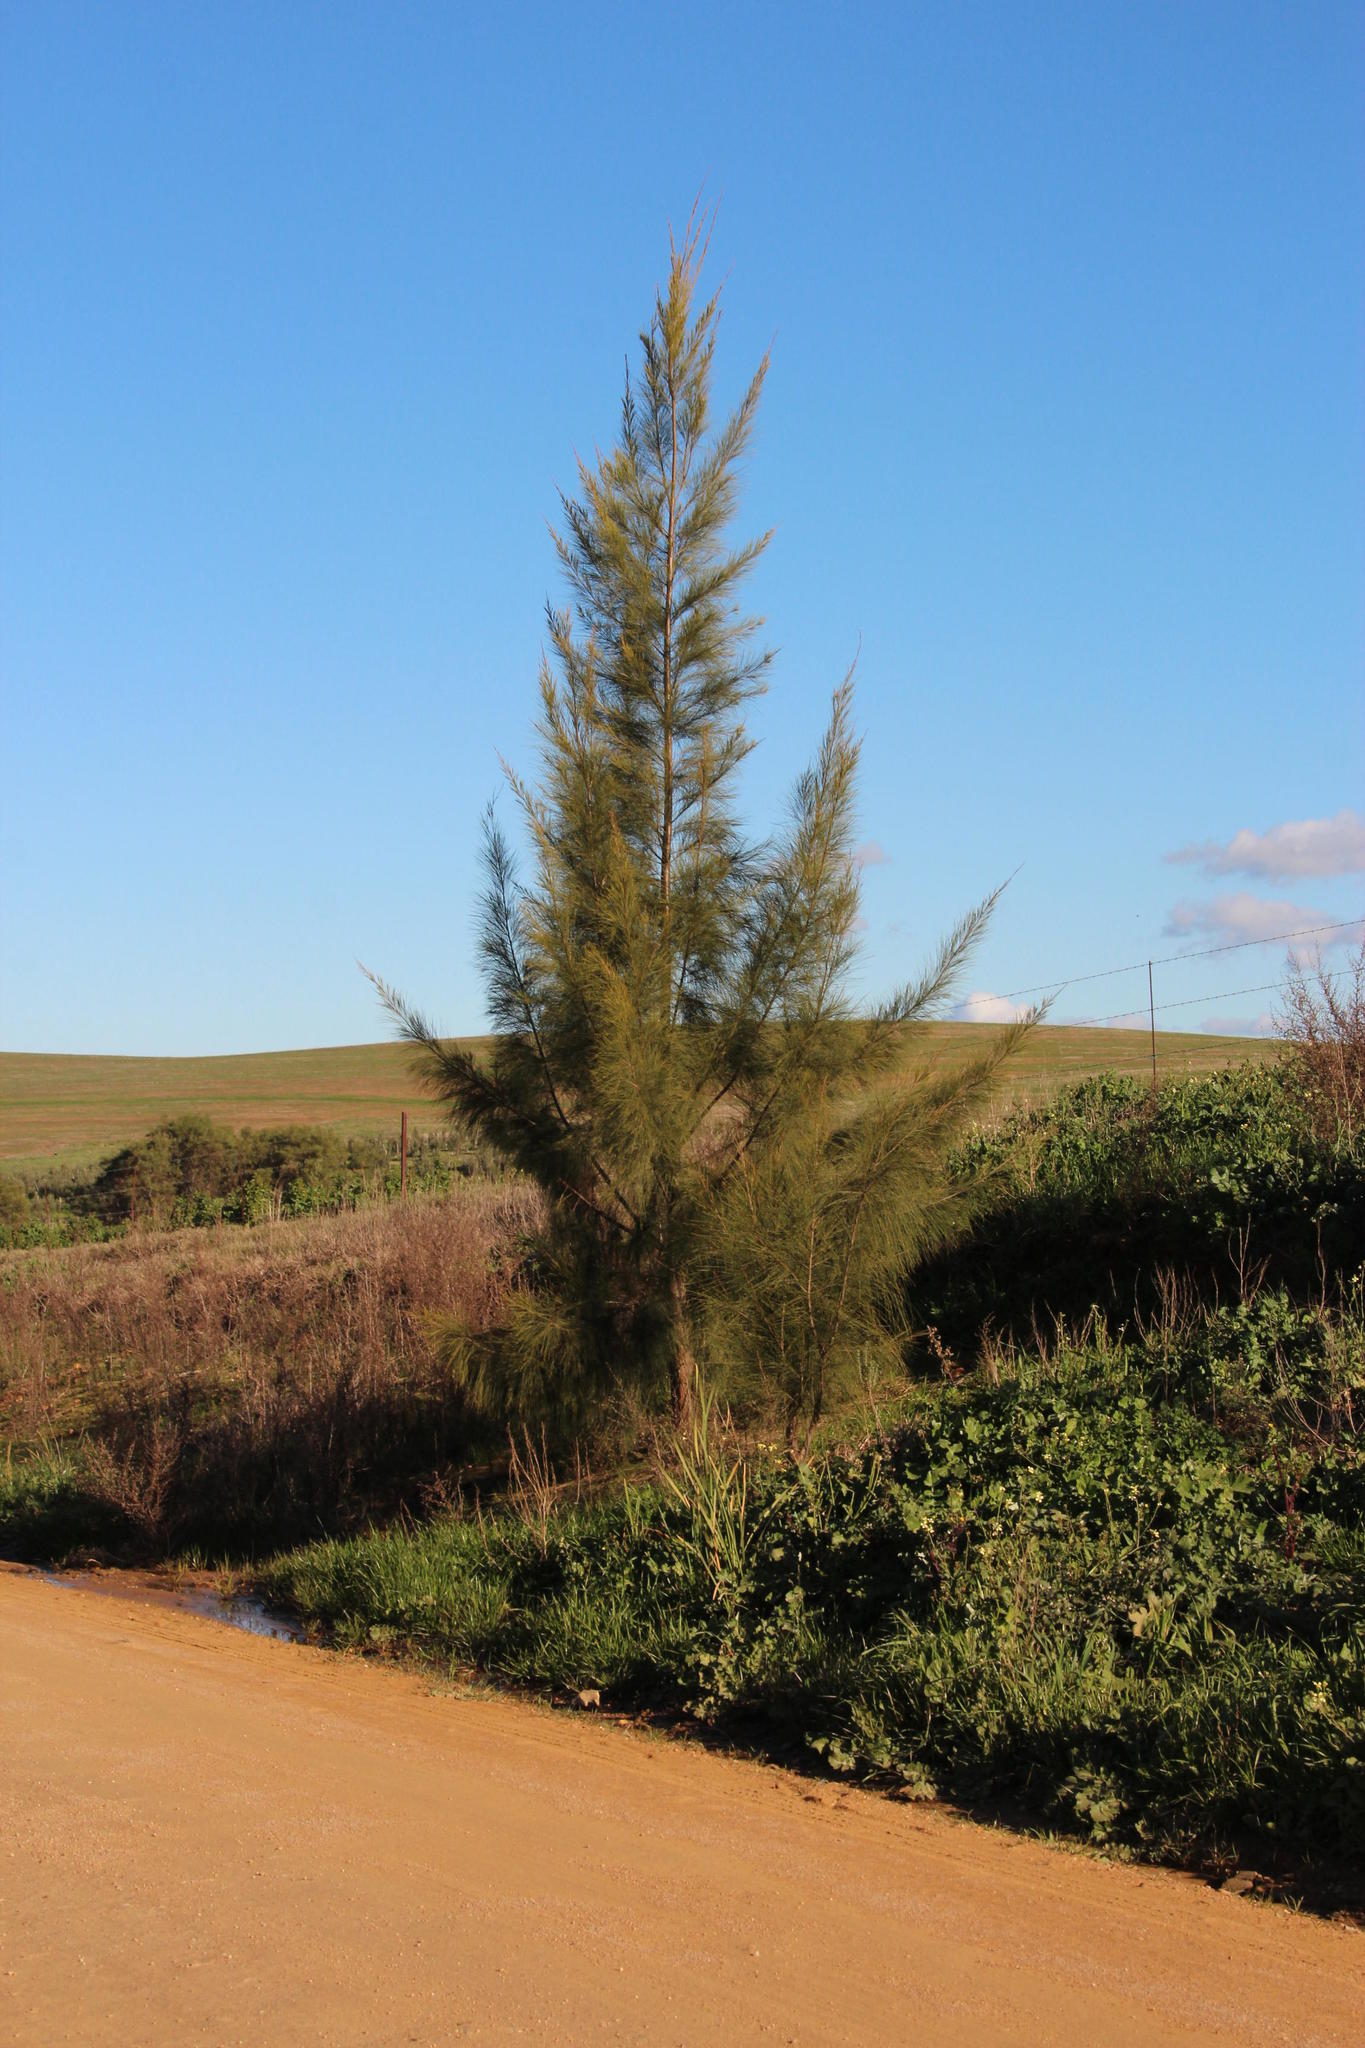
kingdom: Plantae
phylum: Tracheophyta
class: Magnoliopsida
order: Fagales
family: Casuarinaceae
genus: Casuarina
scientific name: Casuarina cunninghamiana
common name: River sheoak
